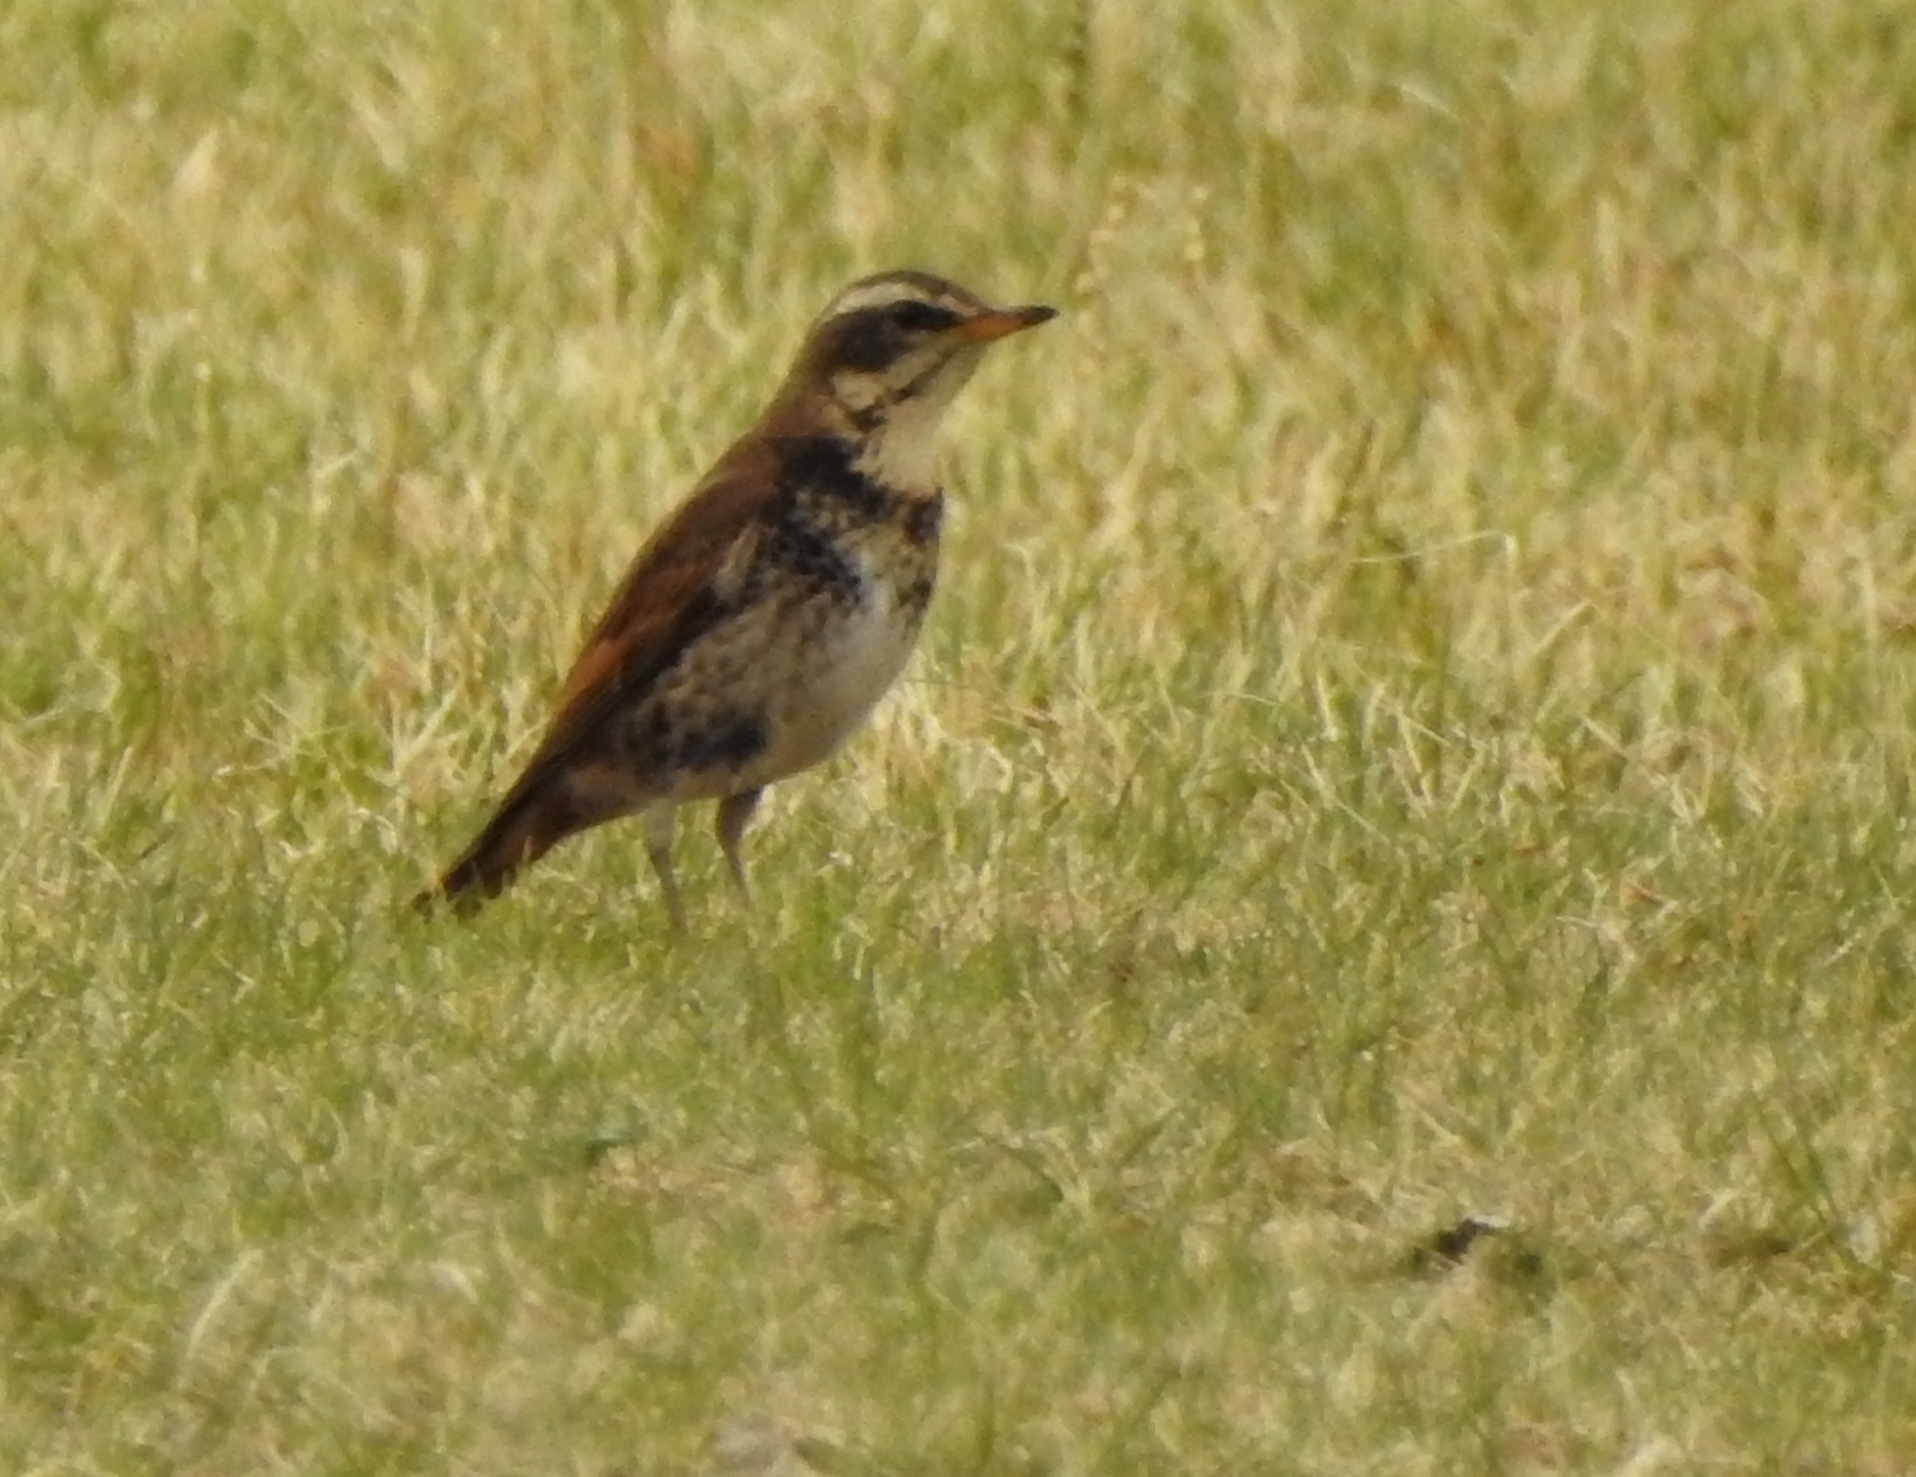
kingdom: Animalia
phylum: Chordata
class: Aves
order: Passeriformes
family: Turdidae
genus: Turdus
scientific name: Turdus eunomus
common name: Dusky thrush
